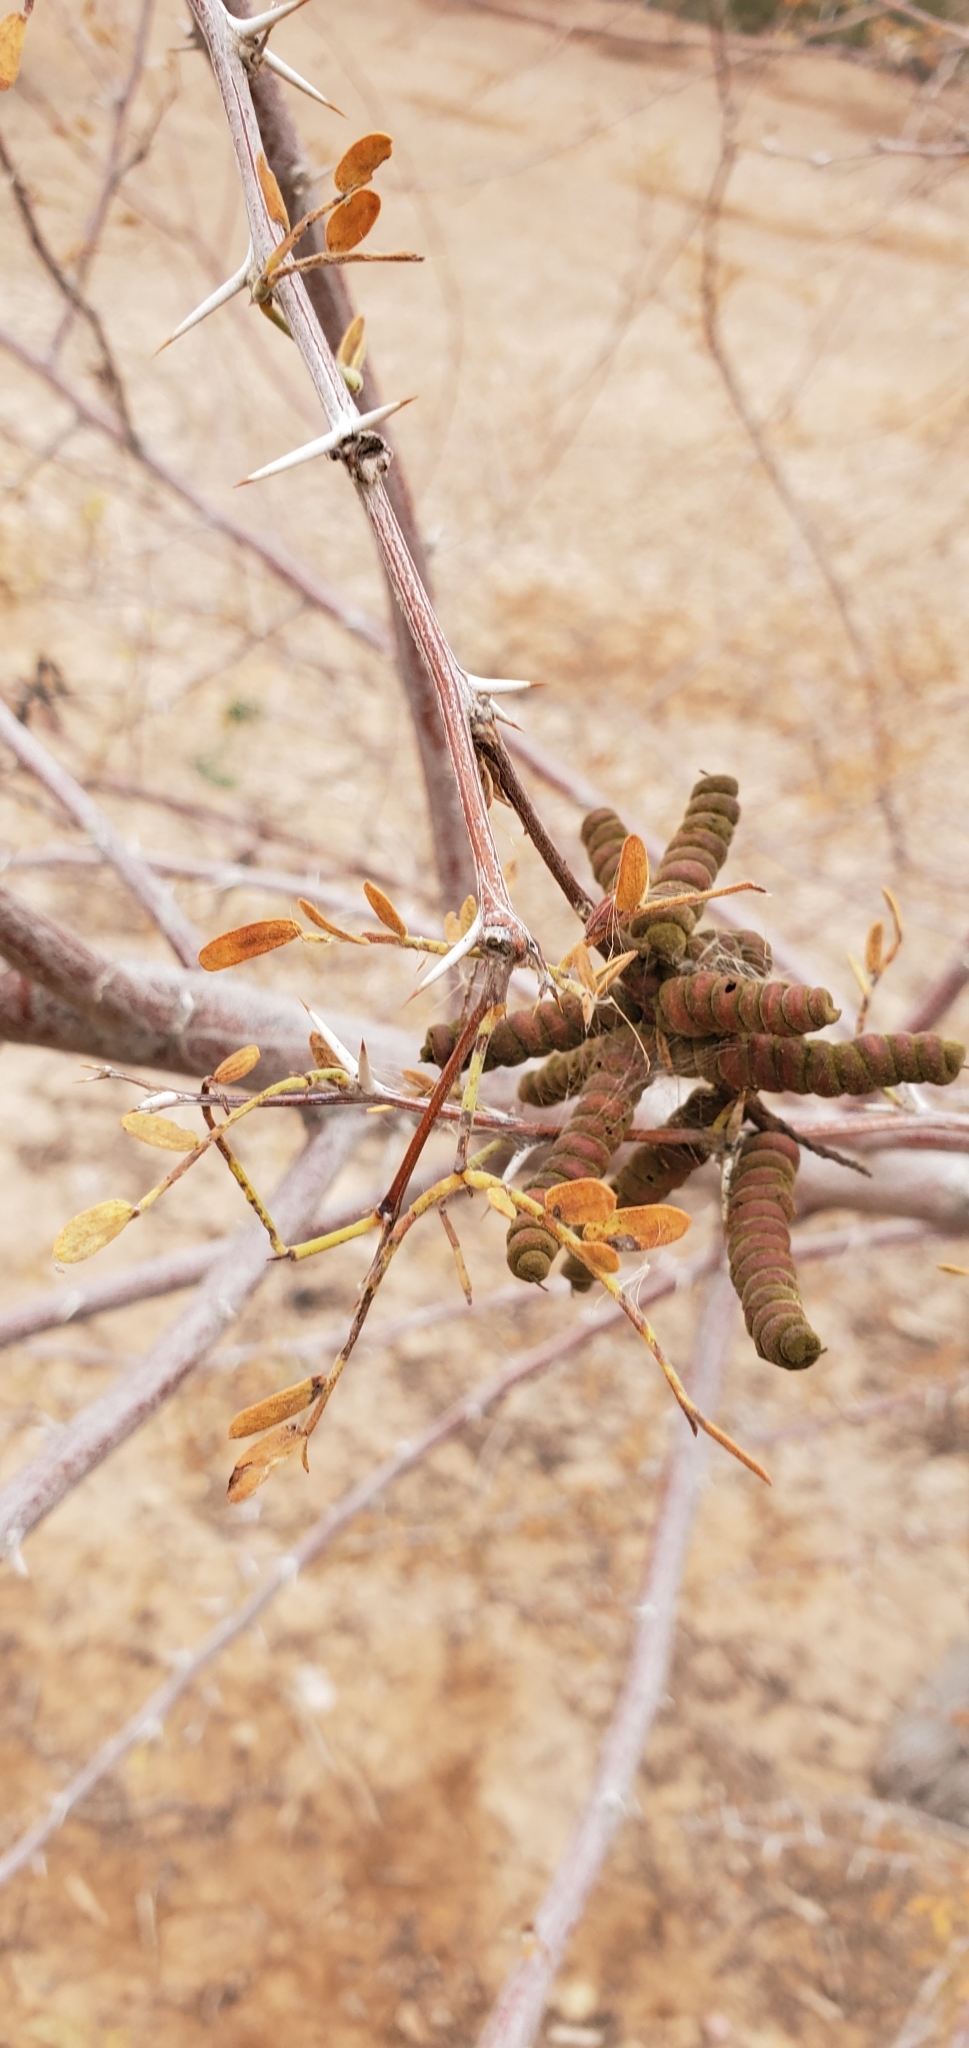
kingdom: Plantae
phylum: Tracheophyta
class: Magnoliopsida
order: Fabales
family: Fabaceae
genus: Prosopis
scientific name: Prosopis pubescens
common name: Screw-bean
